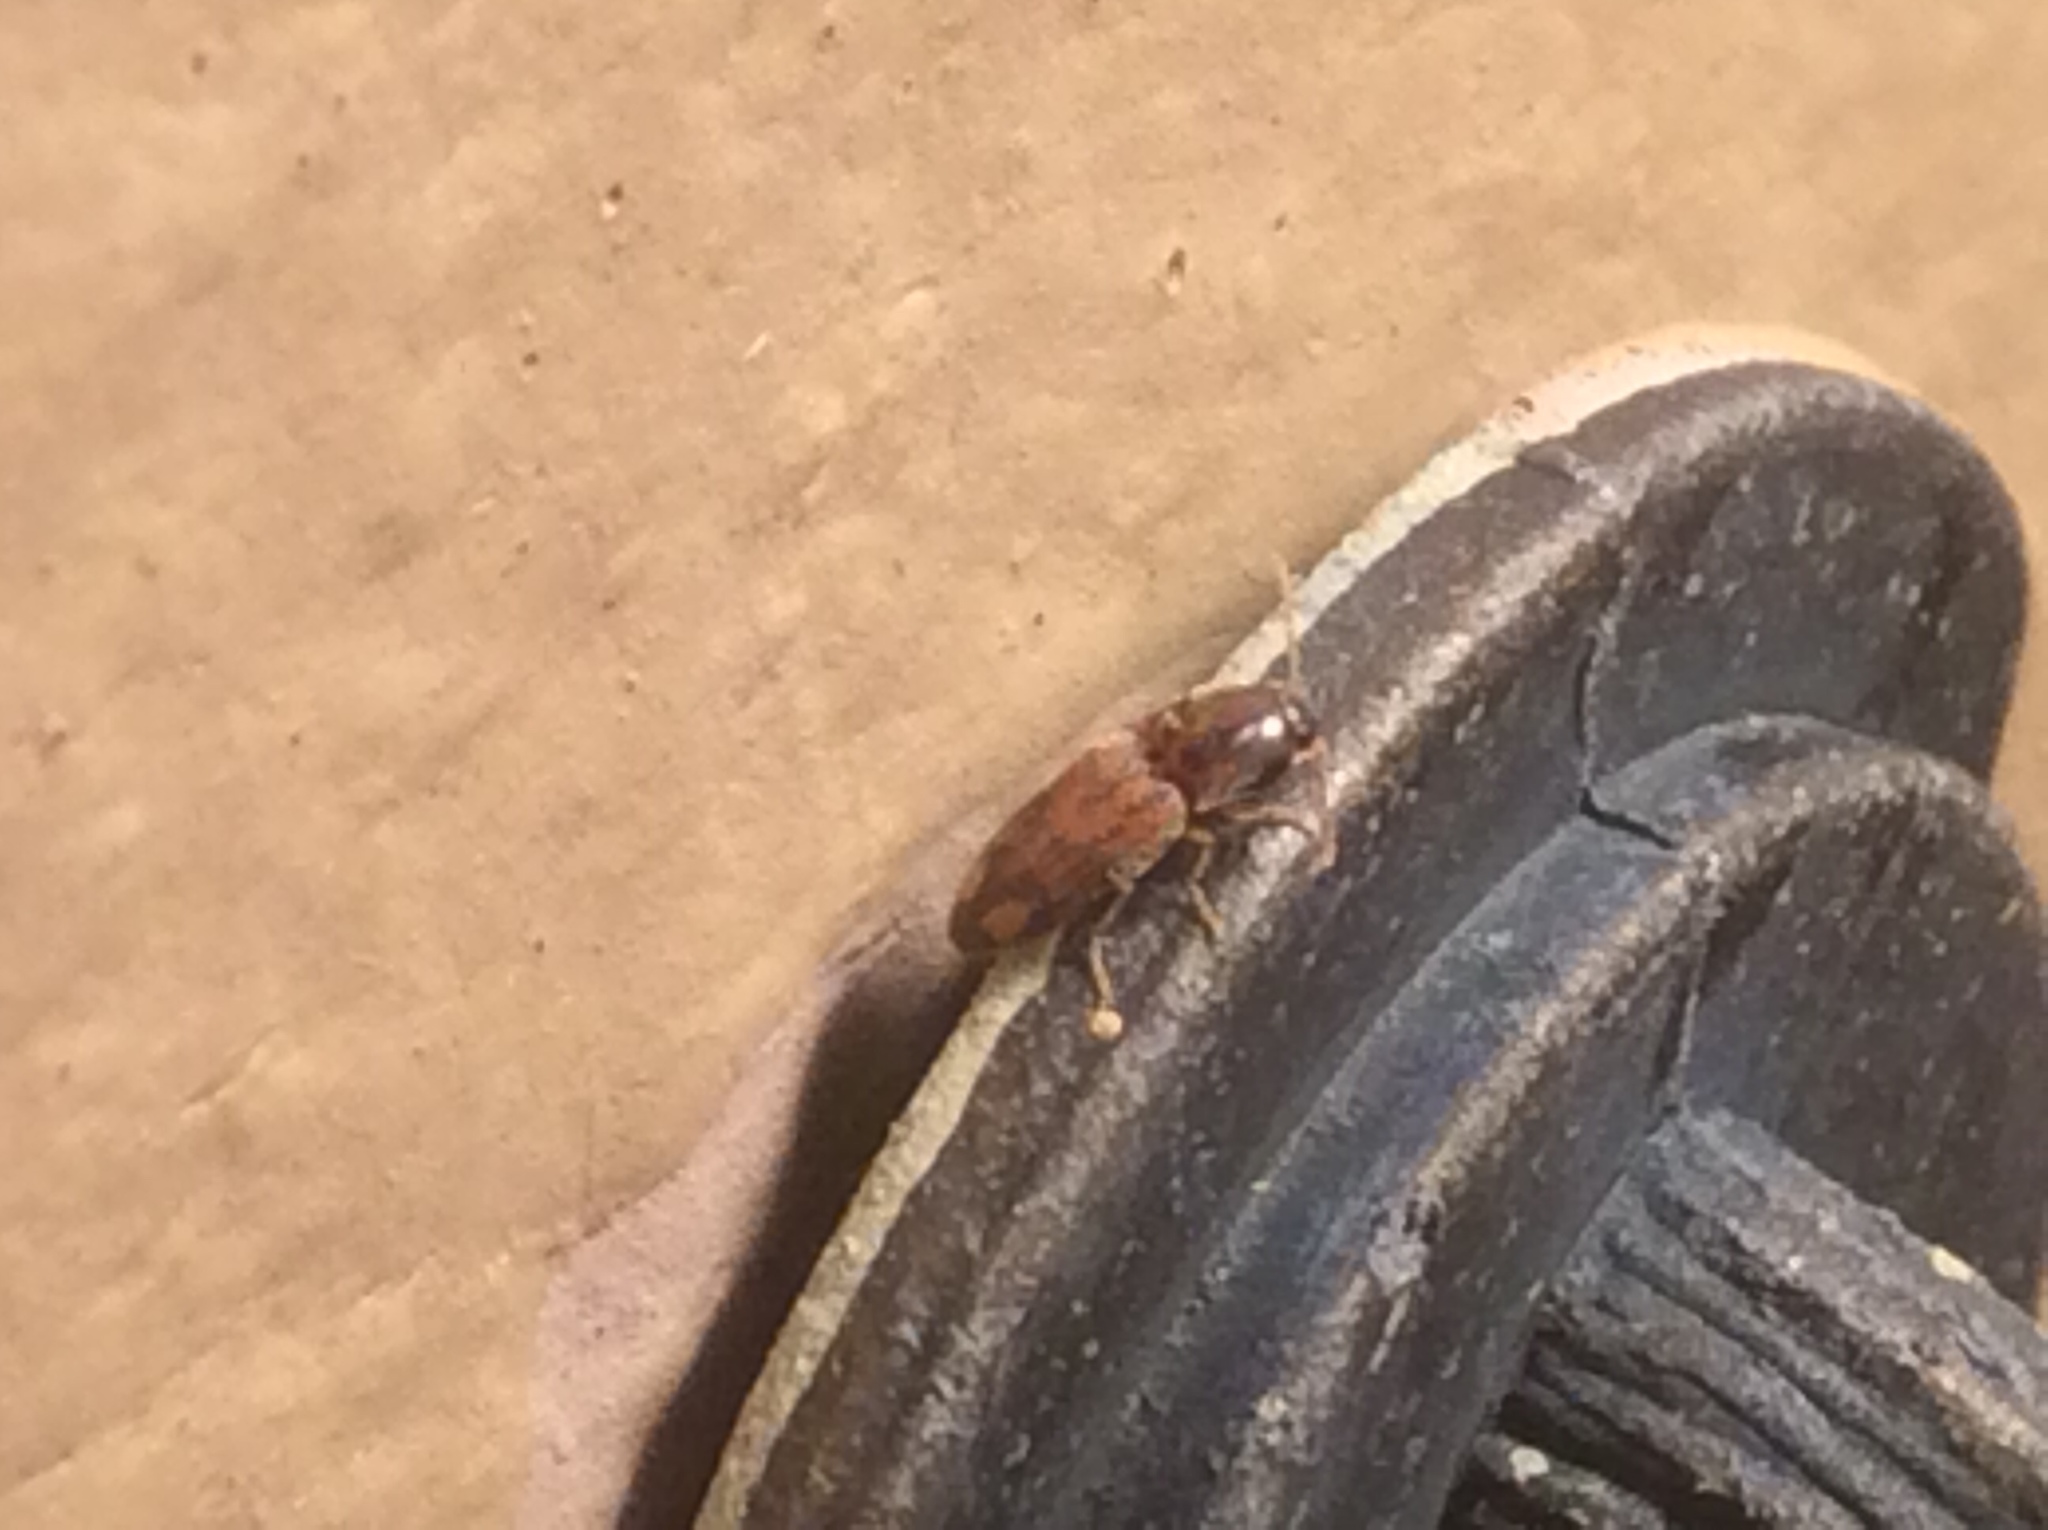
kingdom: Animalia
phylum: Arthropoda
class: Insecta
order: Coleoptera
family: Elateridae
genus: Monocrepidius
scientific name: Monocrepidius bellus
